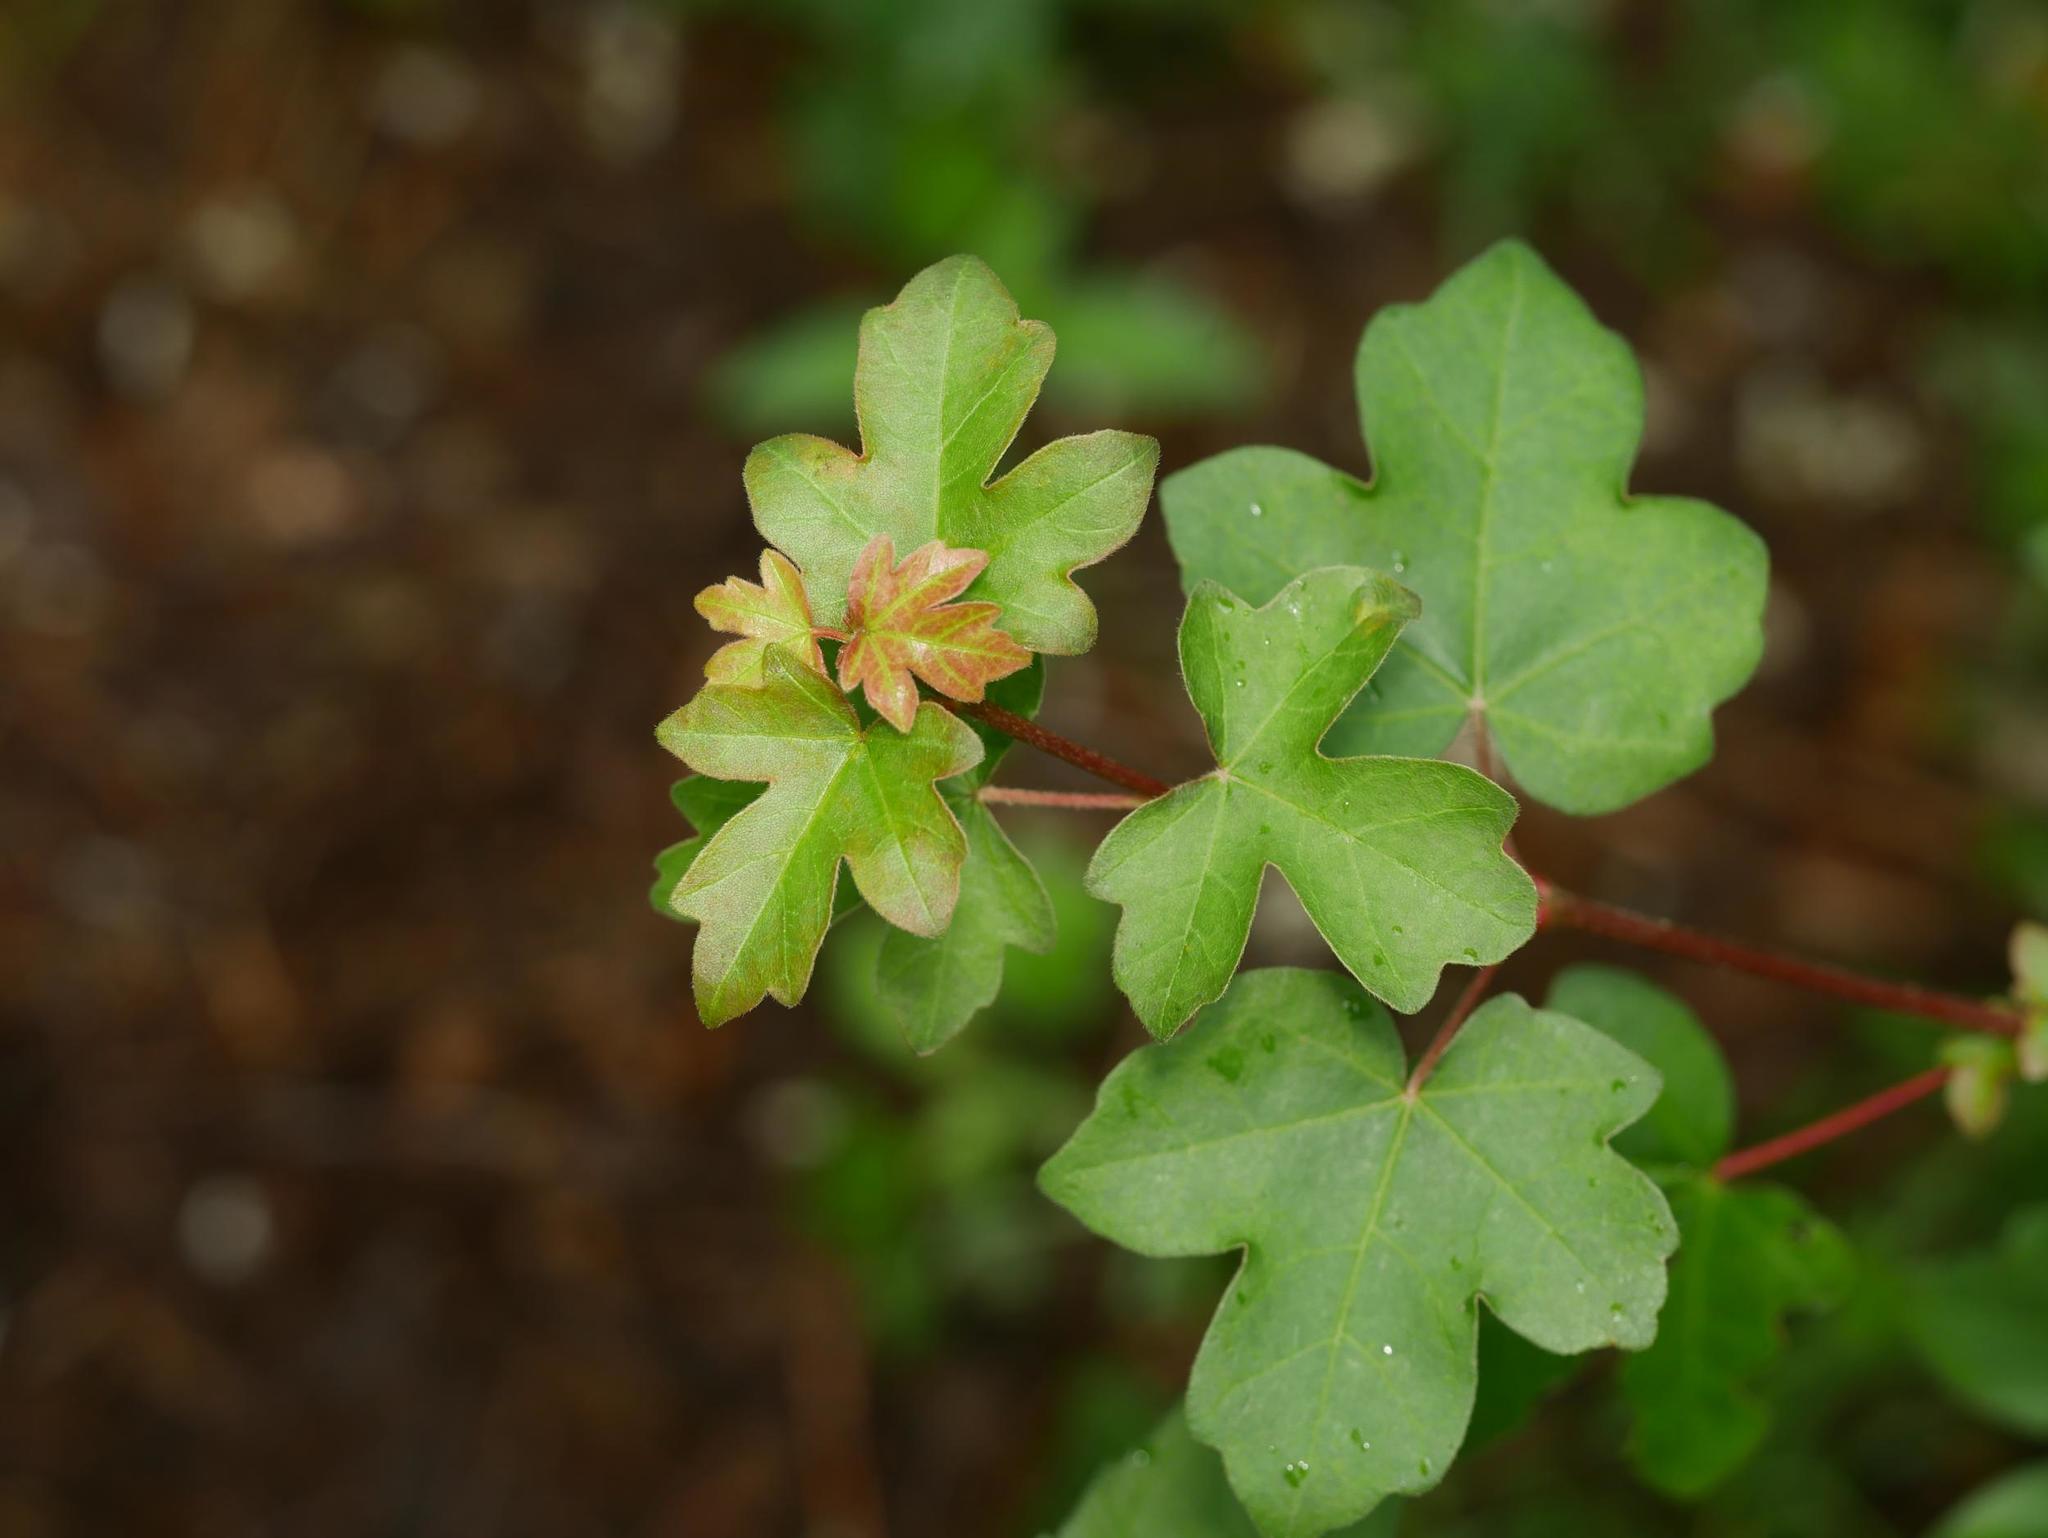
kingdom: Plantae
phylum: Tracheophyta
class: Magnoliopsida
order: Sapindales
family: Sapindaceae
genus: Acer
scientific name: Acer campestre
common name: Field maple
